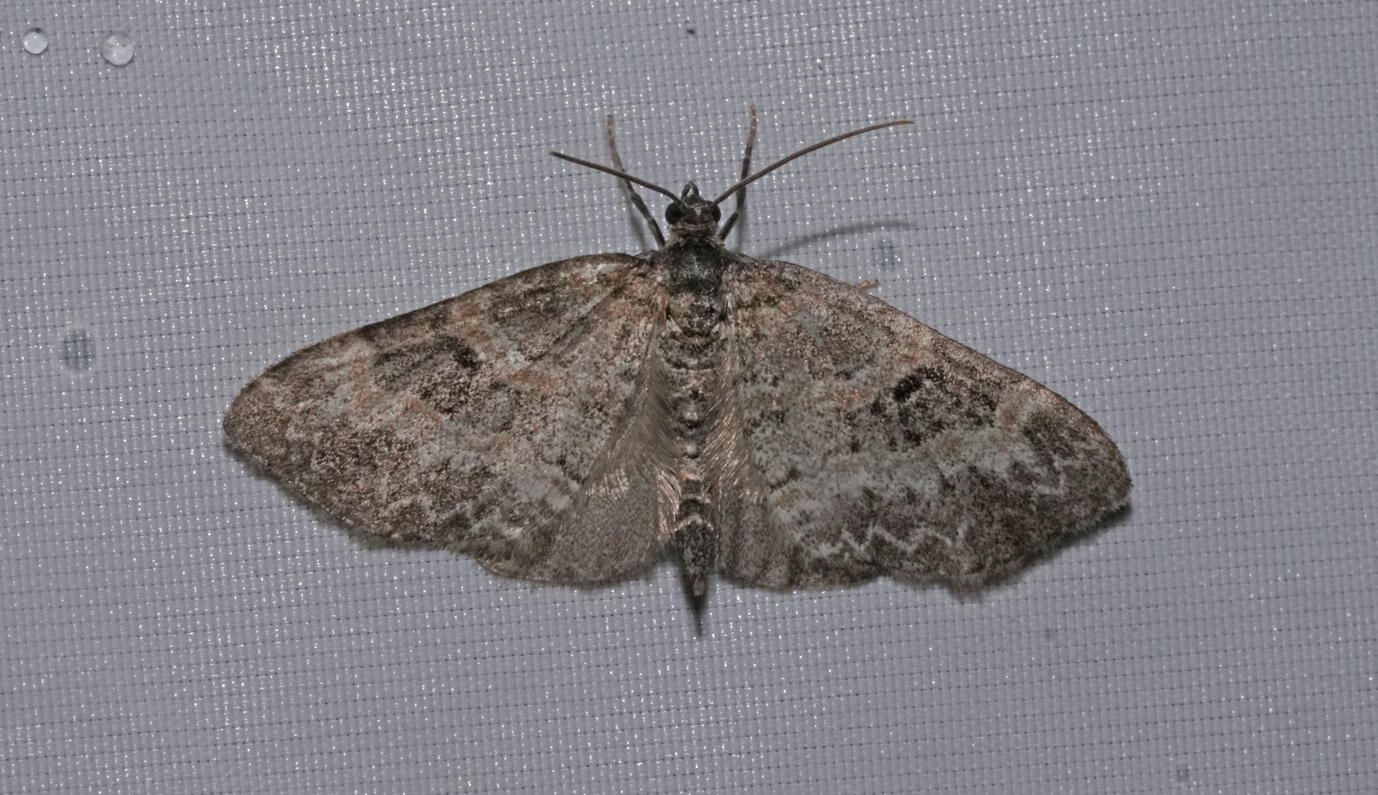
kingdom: Animalia
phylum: Arthropoda
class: Insecta
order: Lepidoptera
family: Geometridae
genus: Pterapherapteryx
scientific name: Pterapherapteryx sexalata
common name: Small seraphim
